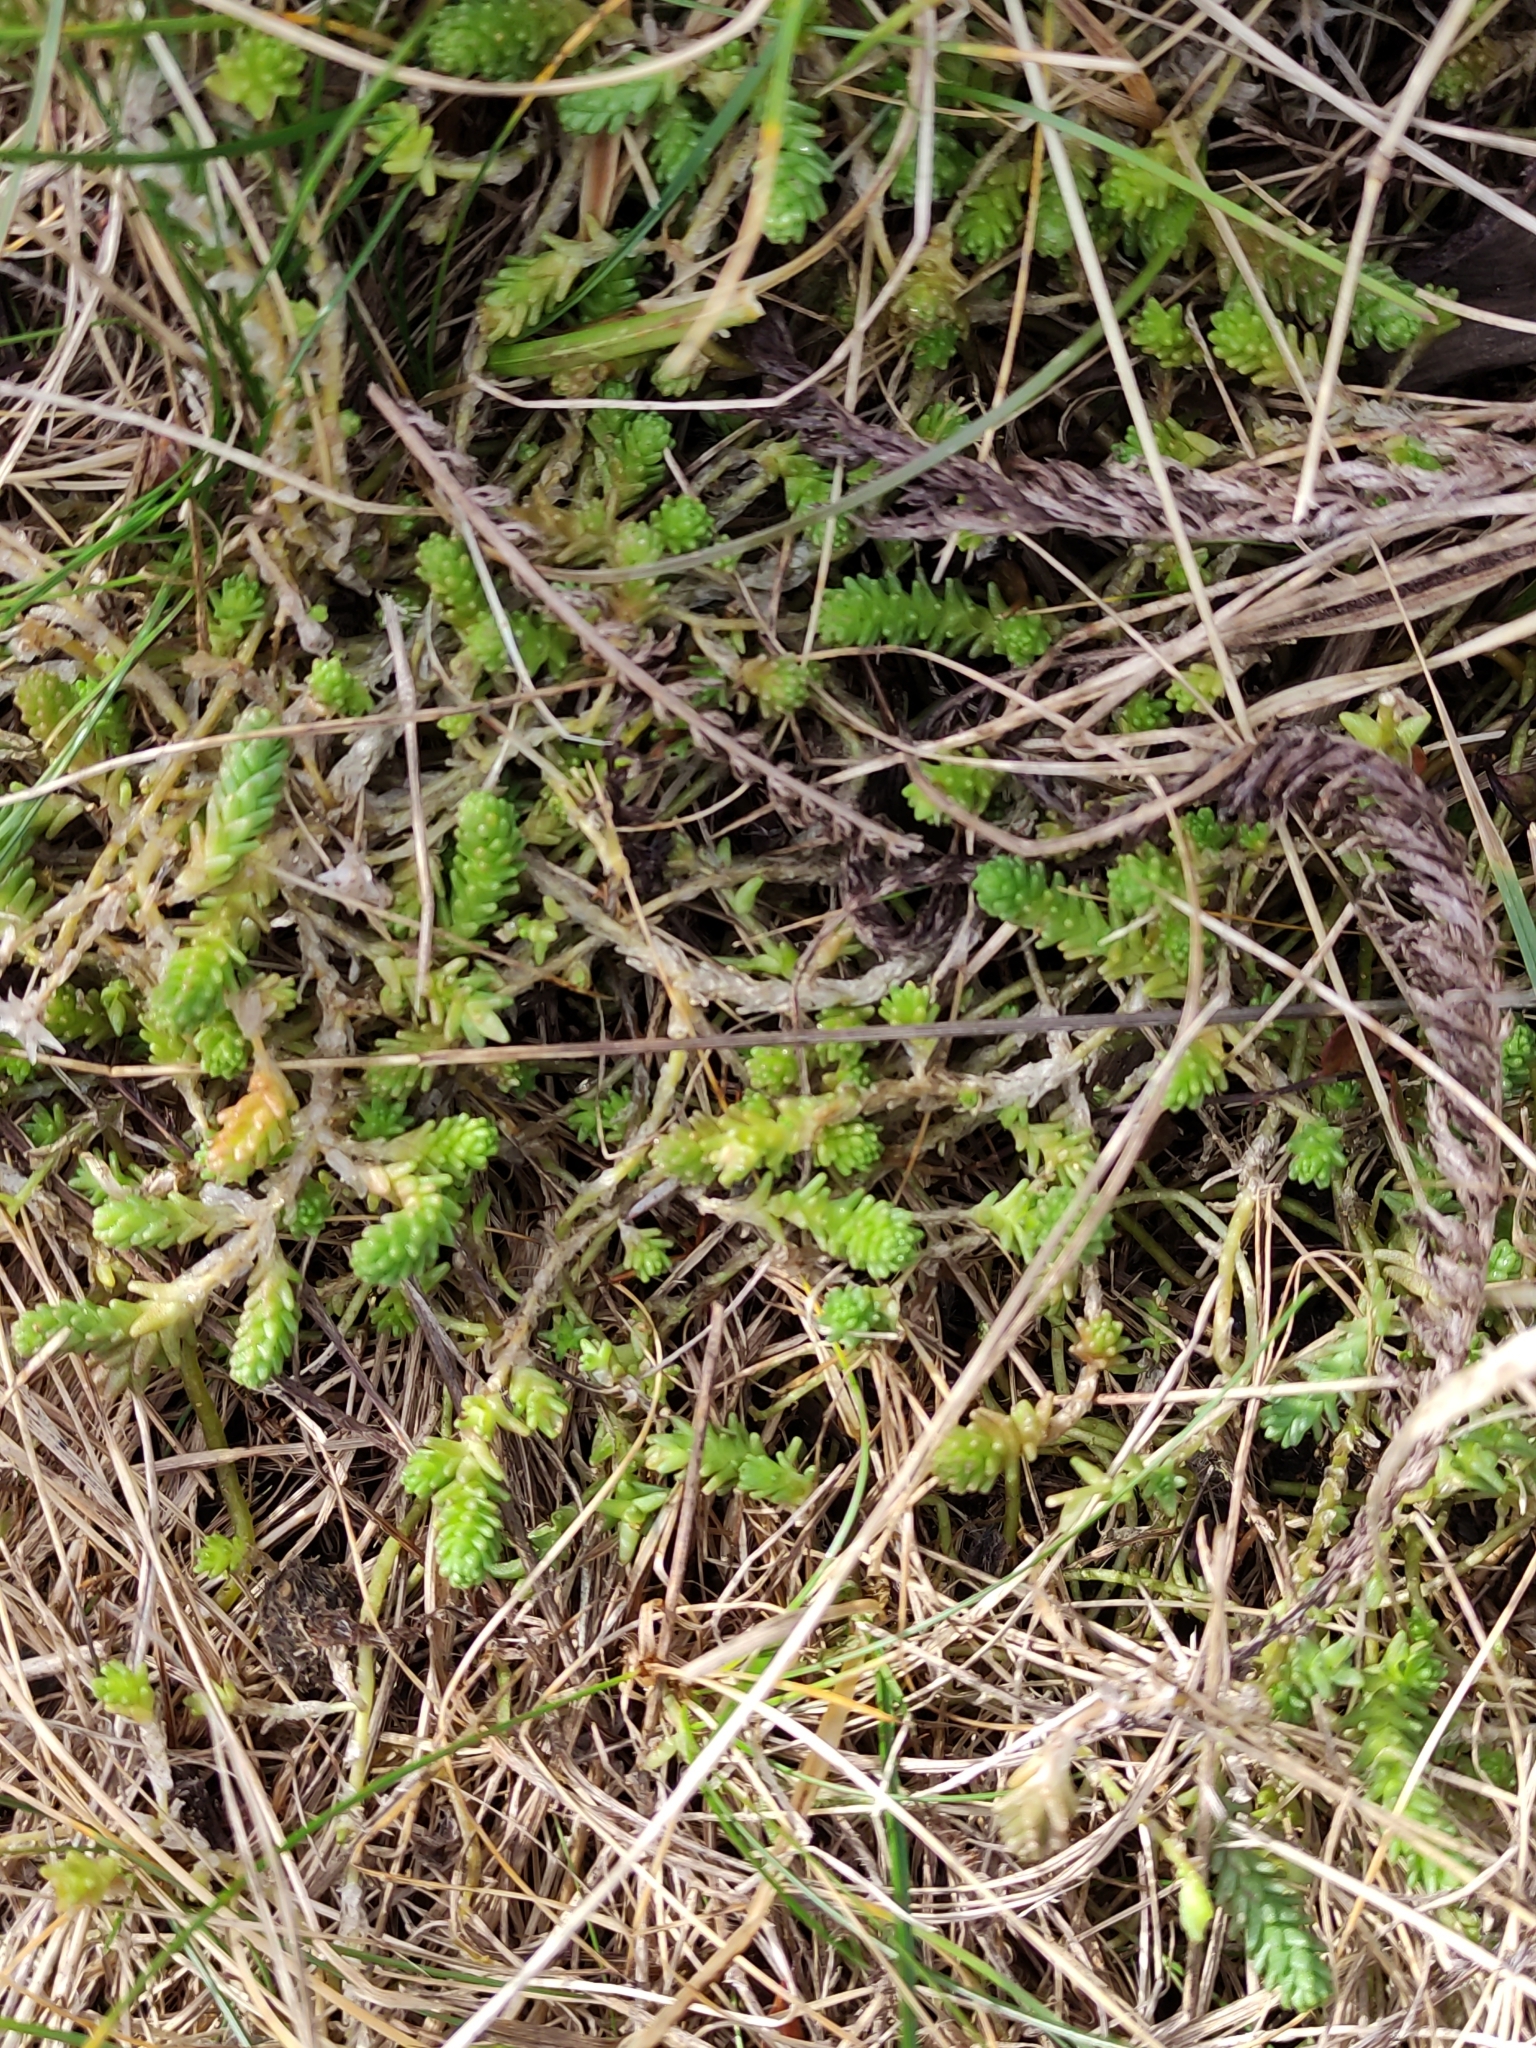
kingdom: Plantae
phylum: Tracheophyta
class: Magnoliopsida
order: Saxifragales
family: Crassulaceae
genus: Sedum
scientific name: Sedum acre
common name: Biting stonecrop
